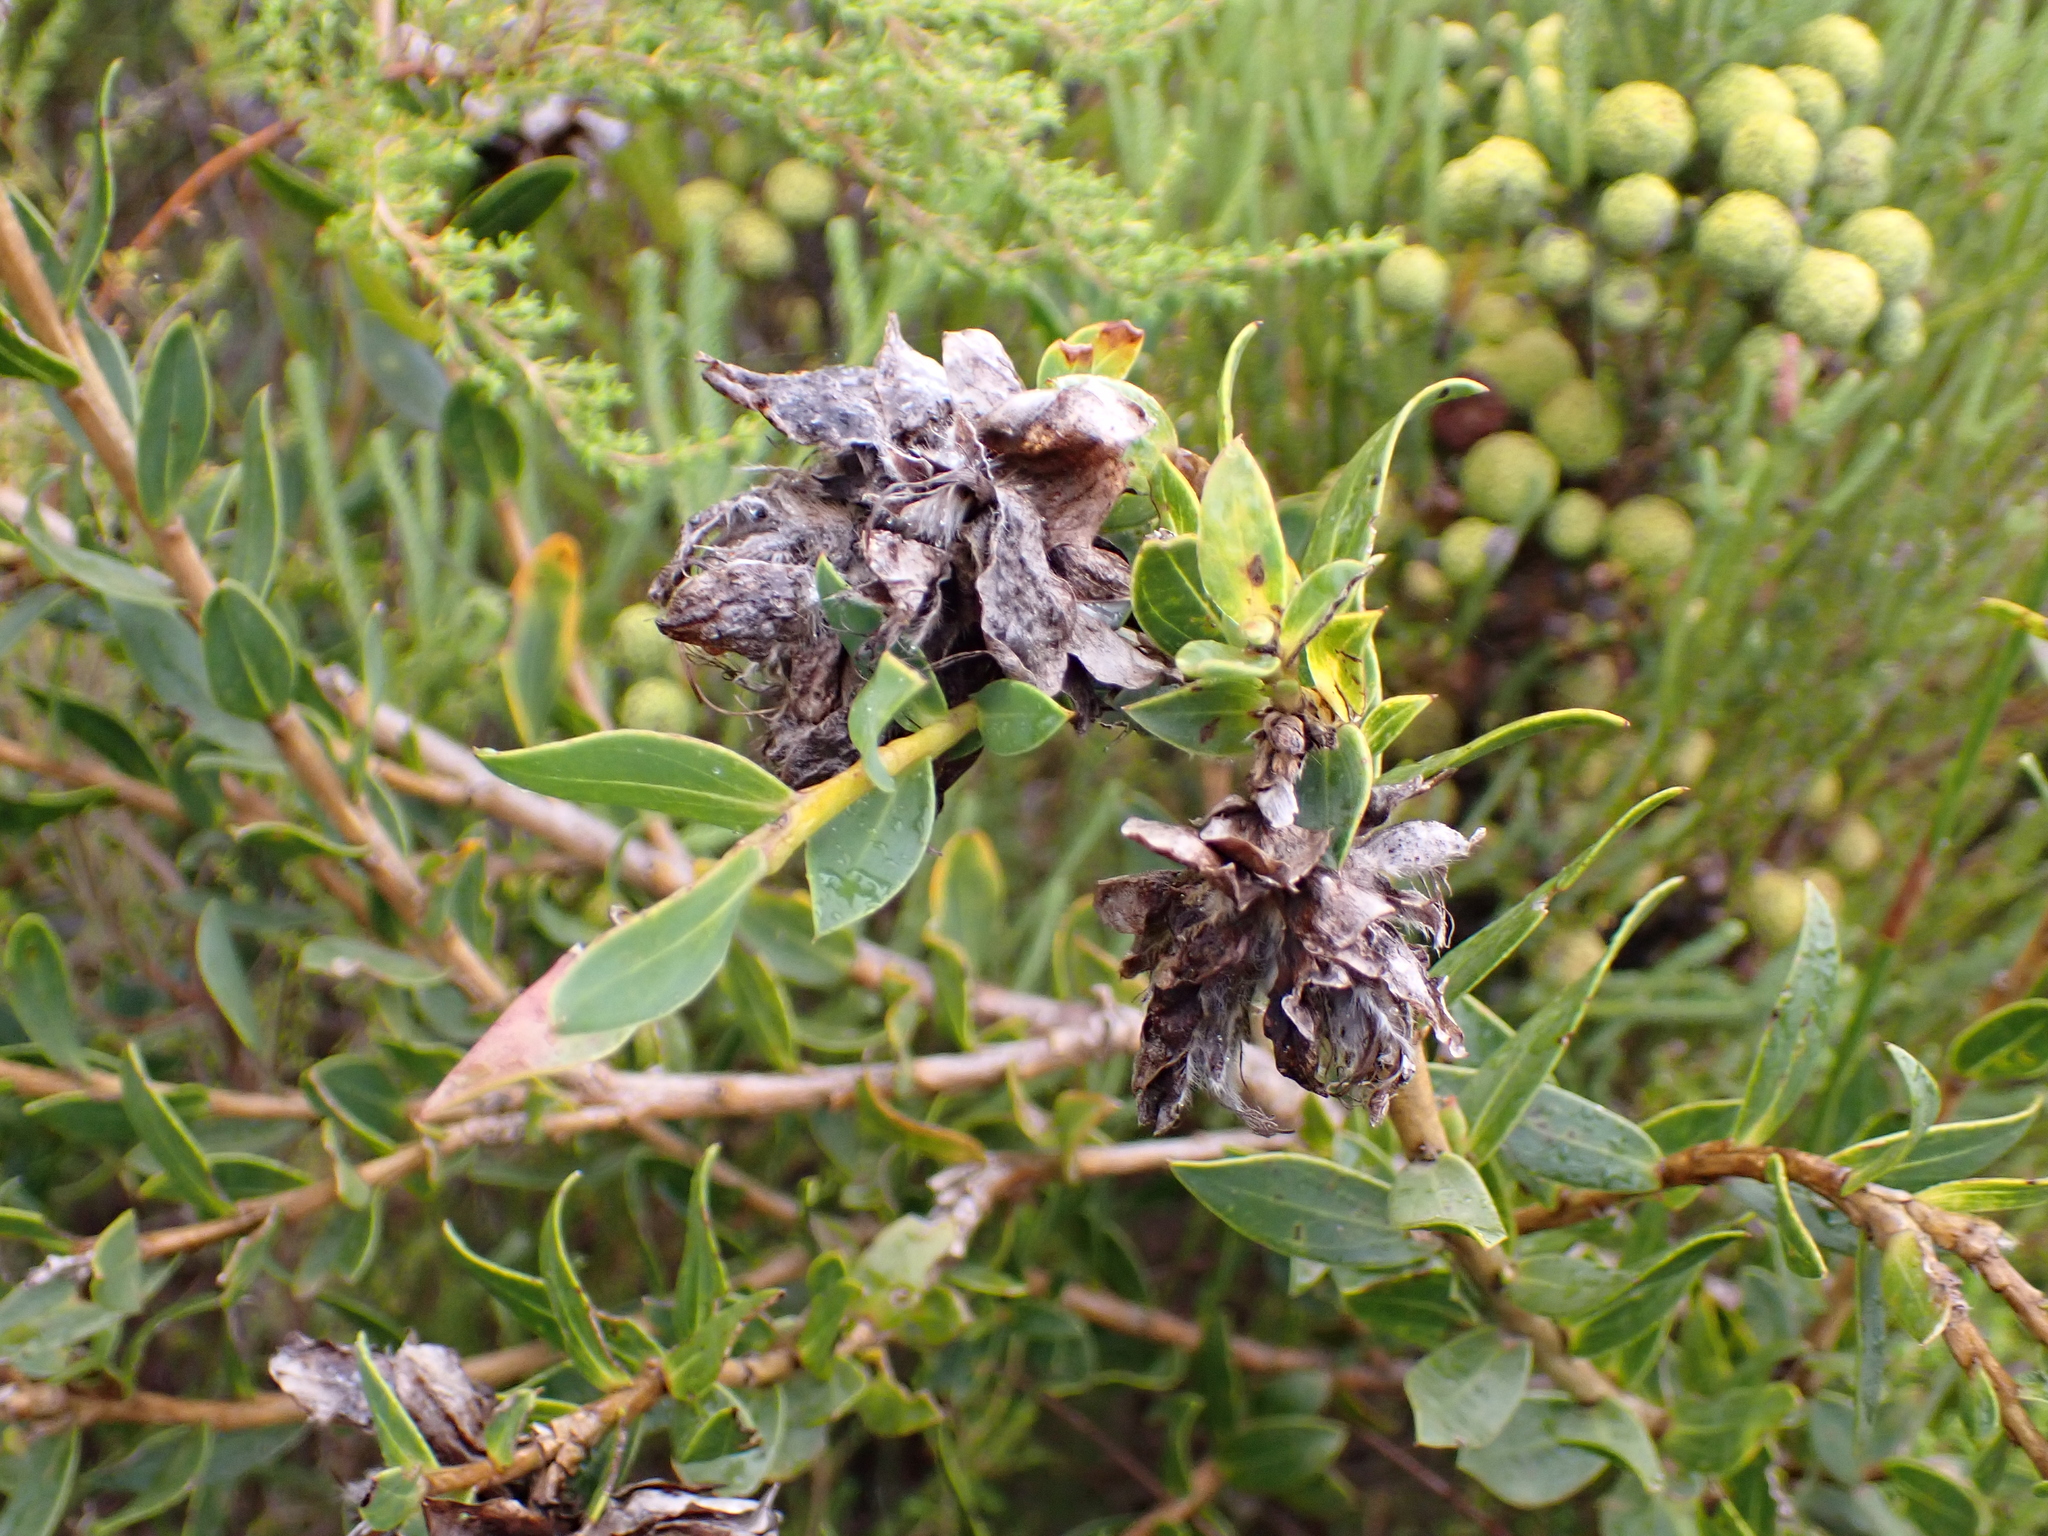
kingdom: Plantae
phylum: Tracheophyta
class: Magnoliopsida
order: Fabales
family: Fabaceae
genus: Liparia
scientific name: Liparia splendens
